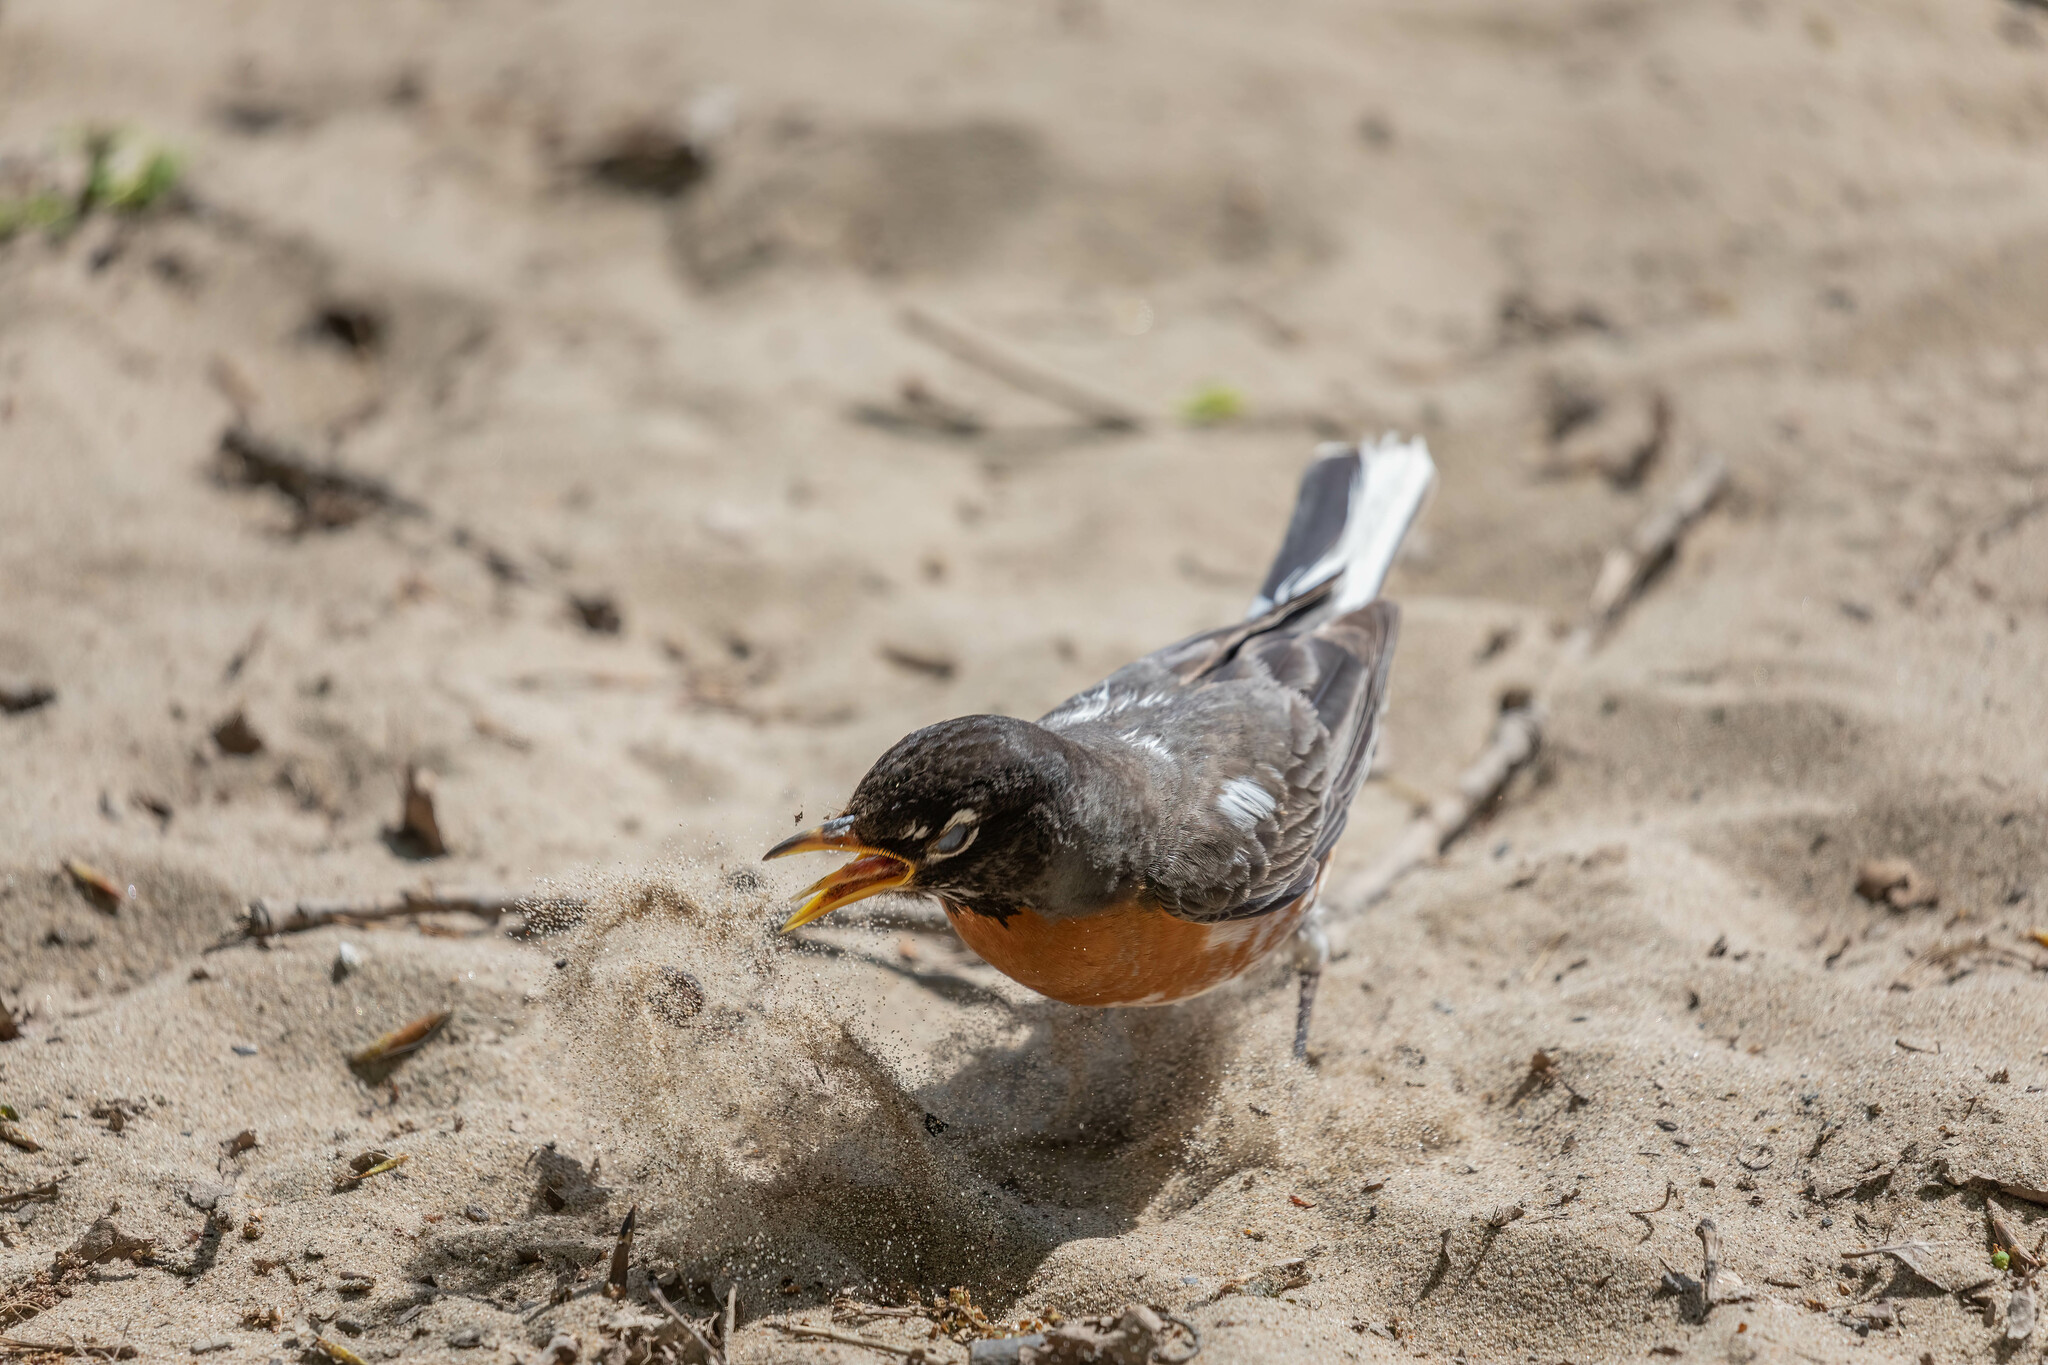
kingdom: Animalia
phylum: Chordata
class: Aves
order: Passeriformes
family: Turdidae
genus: Turdus
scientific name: Turdus migratorius
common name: American robin
